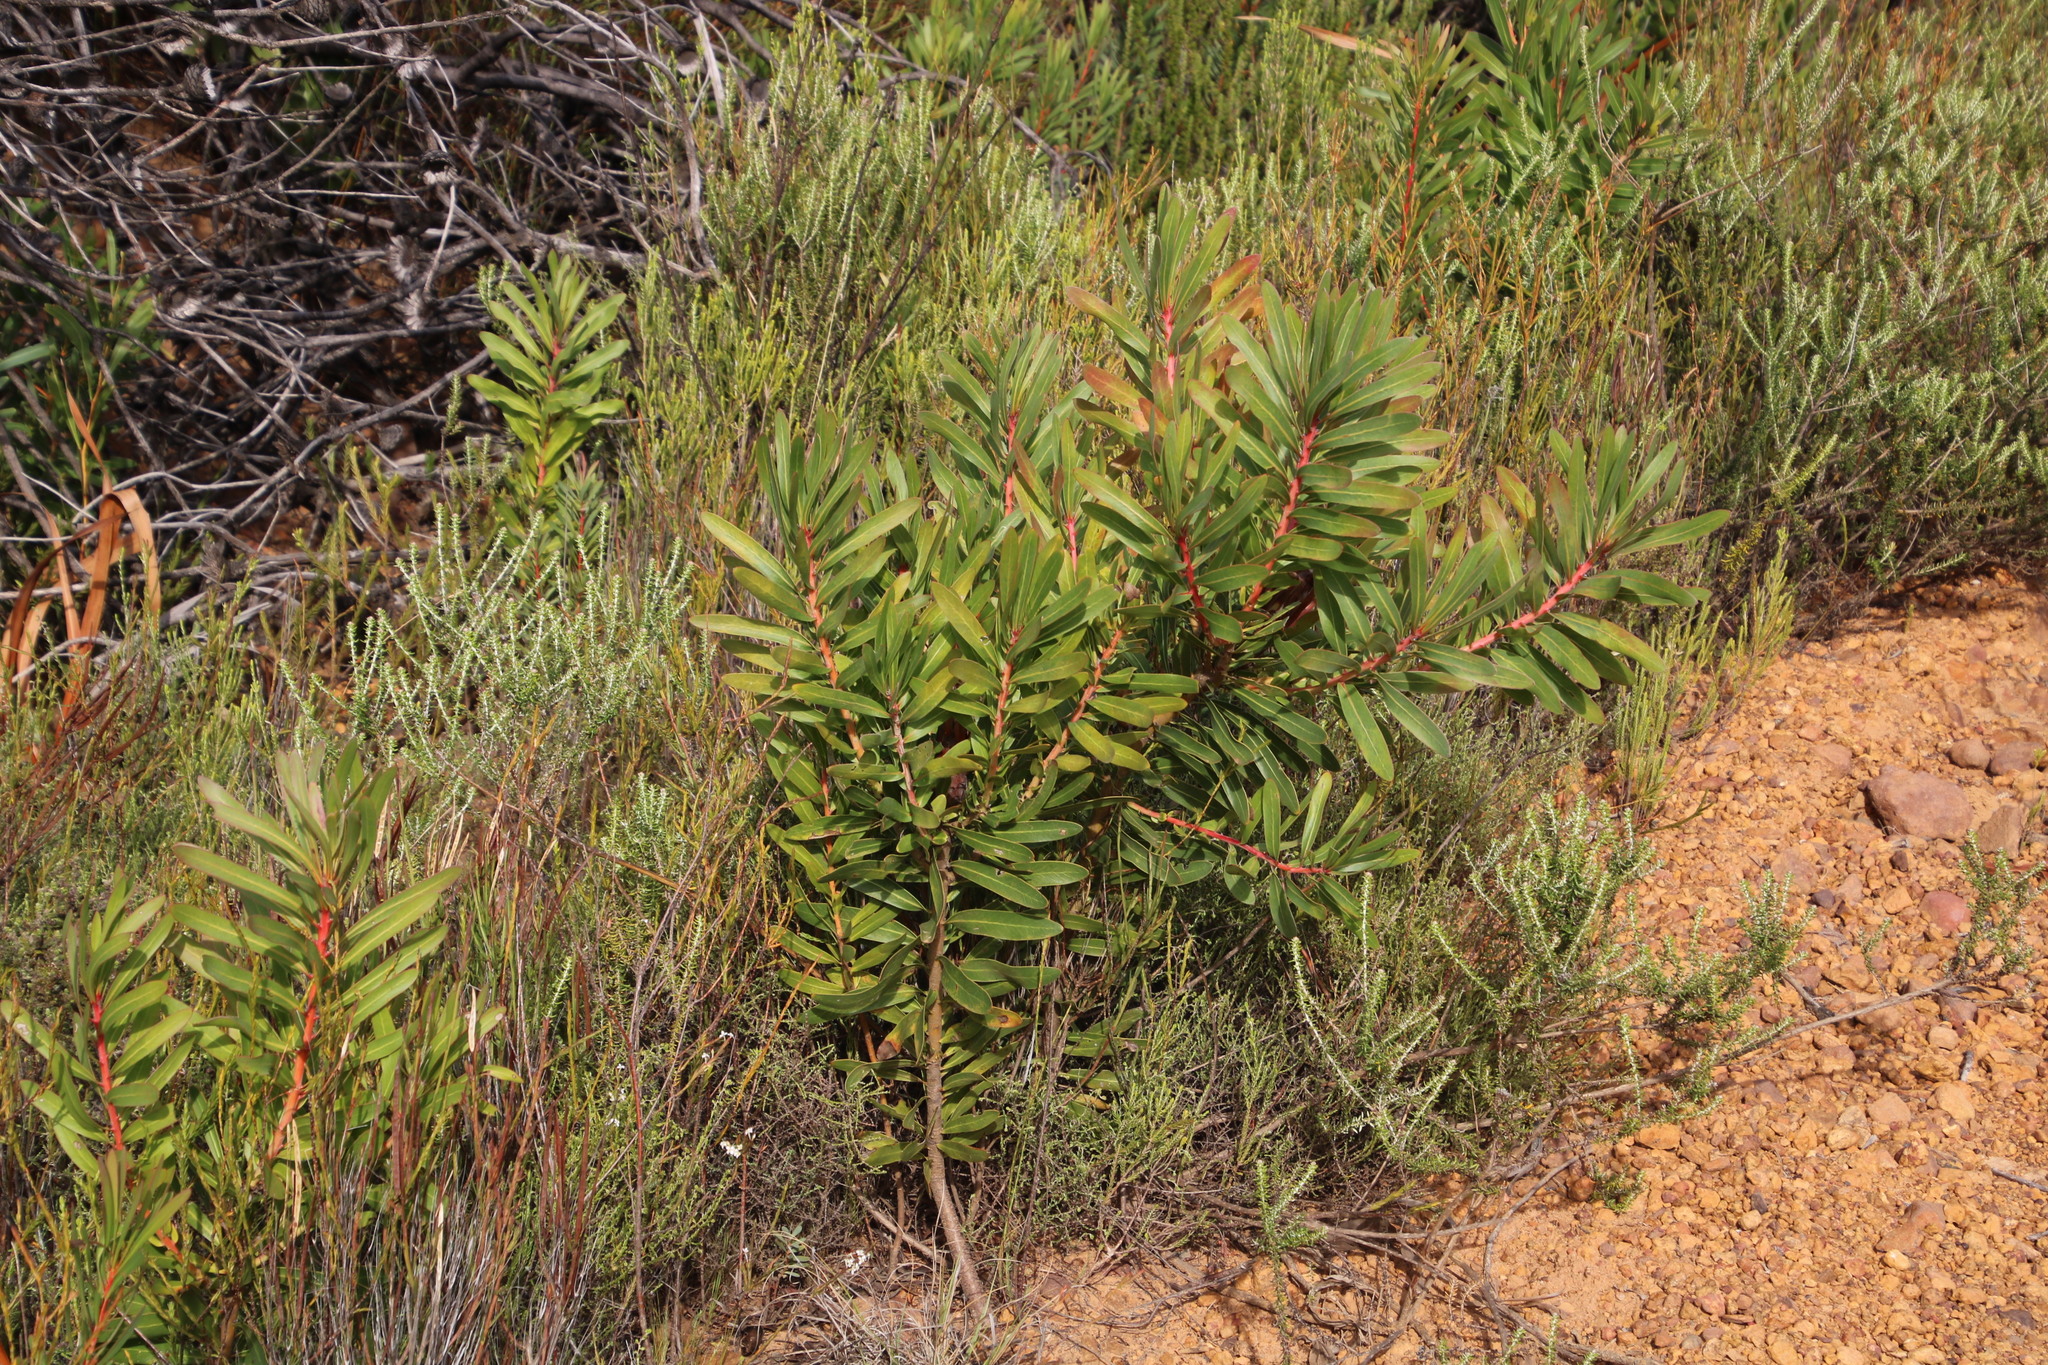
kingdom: Plantae
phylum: Tracheophyta
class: Magnoliopsida
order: Proteales
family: Proteaceae
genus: Protea
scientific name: Protea lepidocarpodendron
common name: Black-bearded protea
